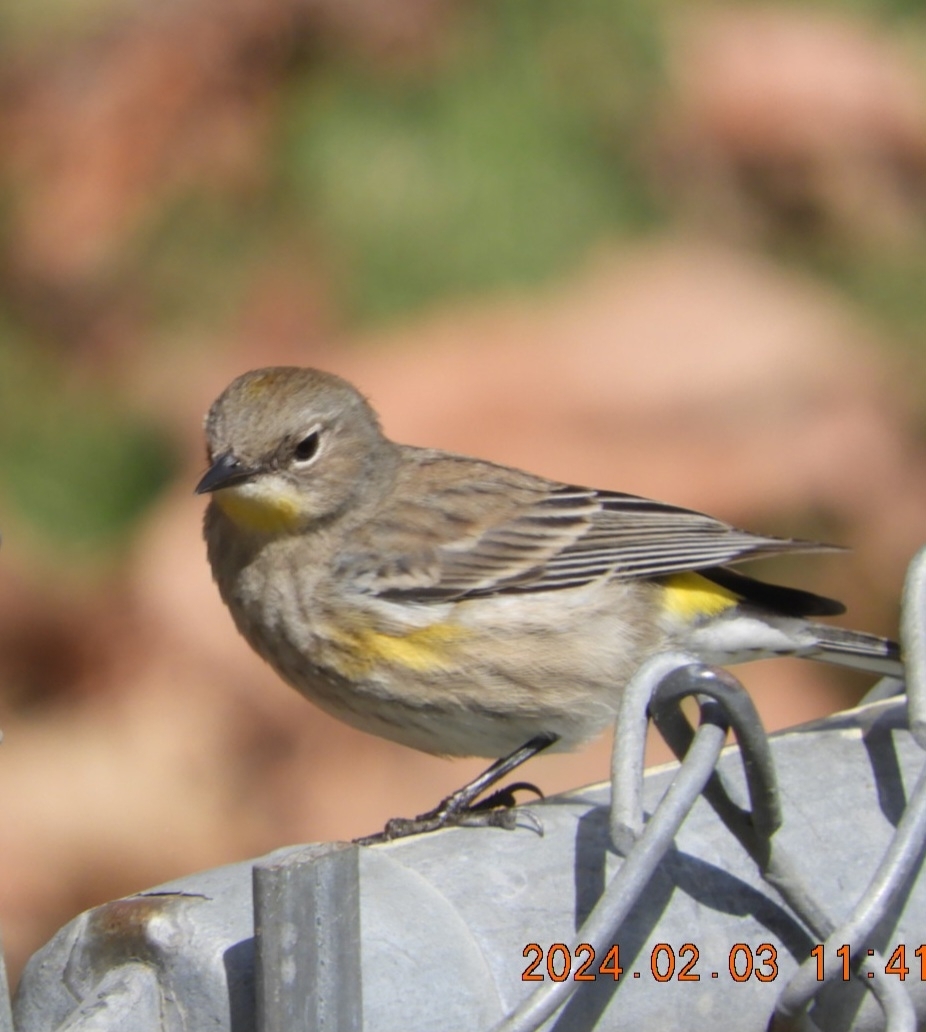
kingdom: Animalia
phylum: Chordata
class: Aves
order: Passeriformes
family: Parulidae
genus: Setophaga
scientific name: Setophaga coronata
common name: Myrtle warbler
